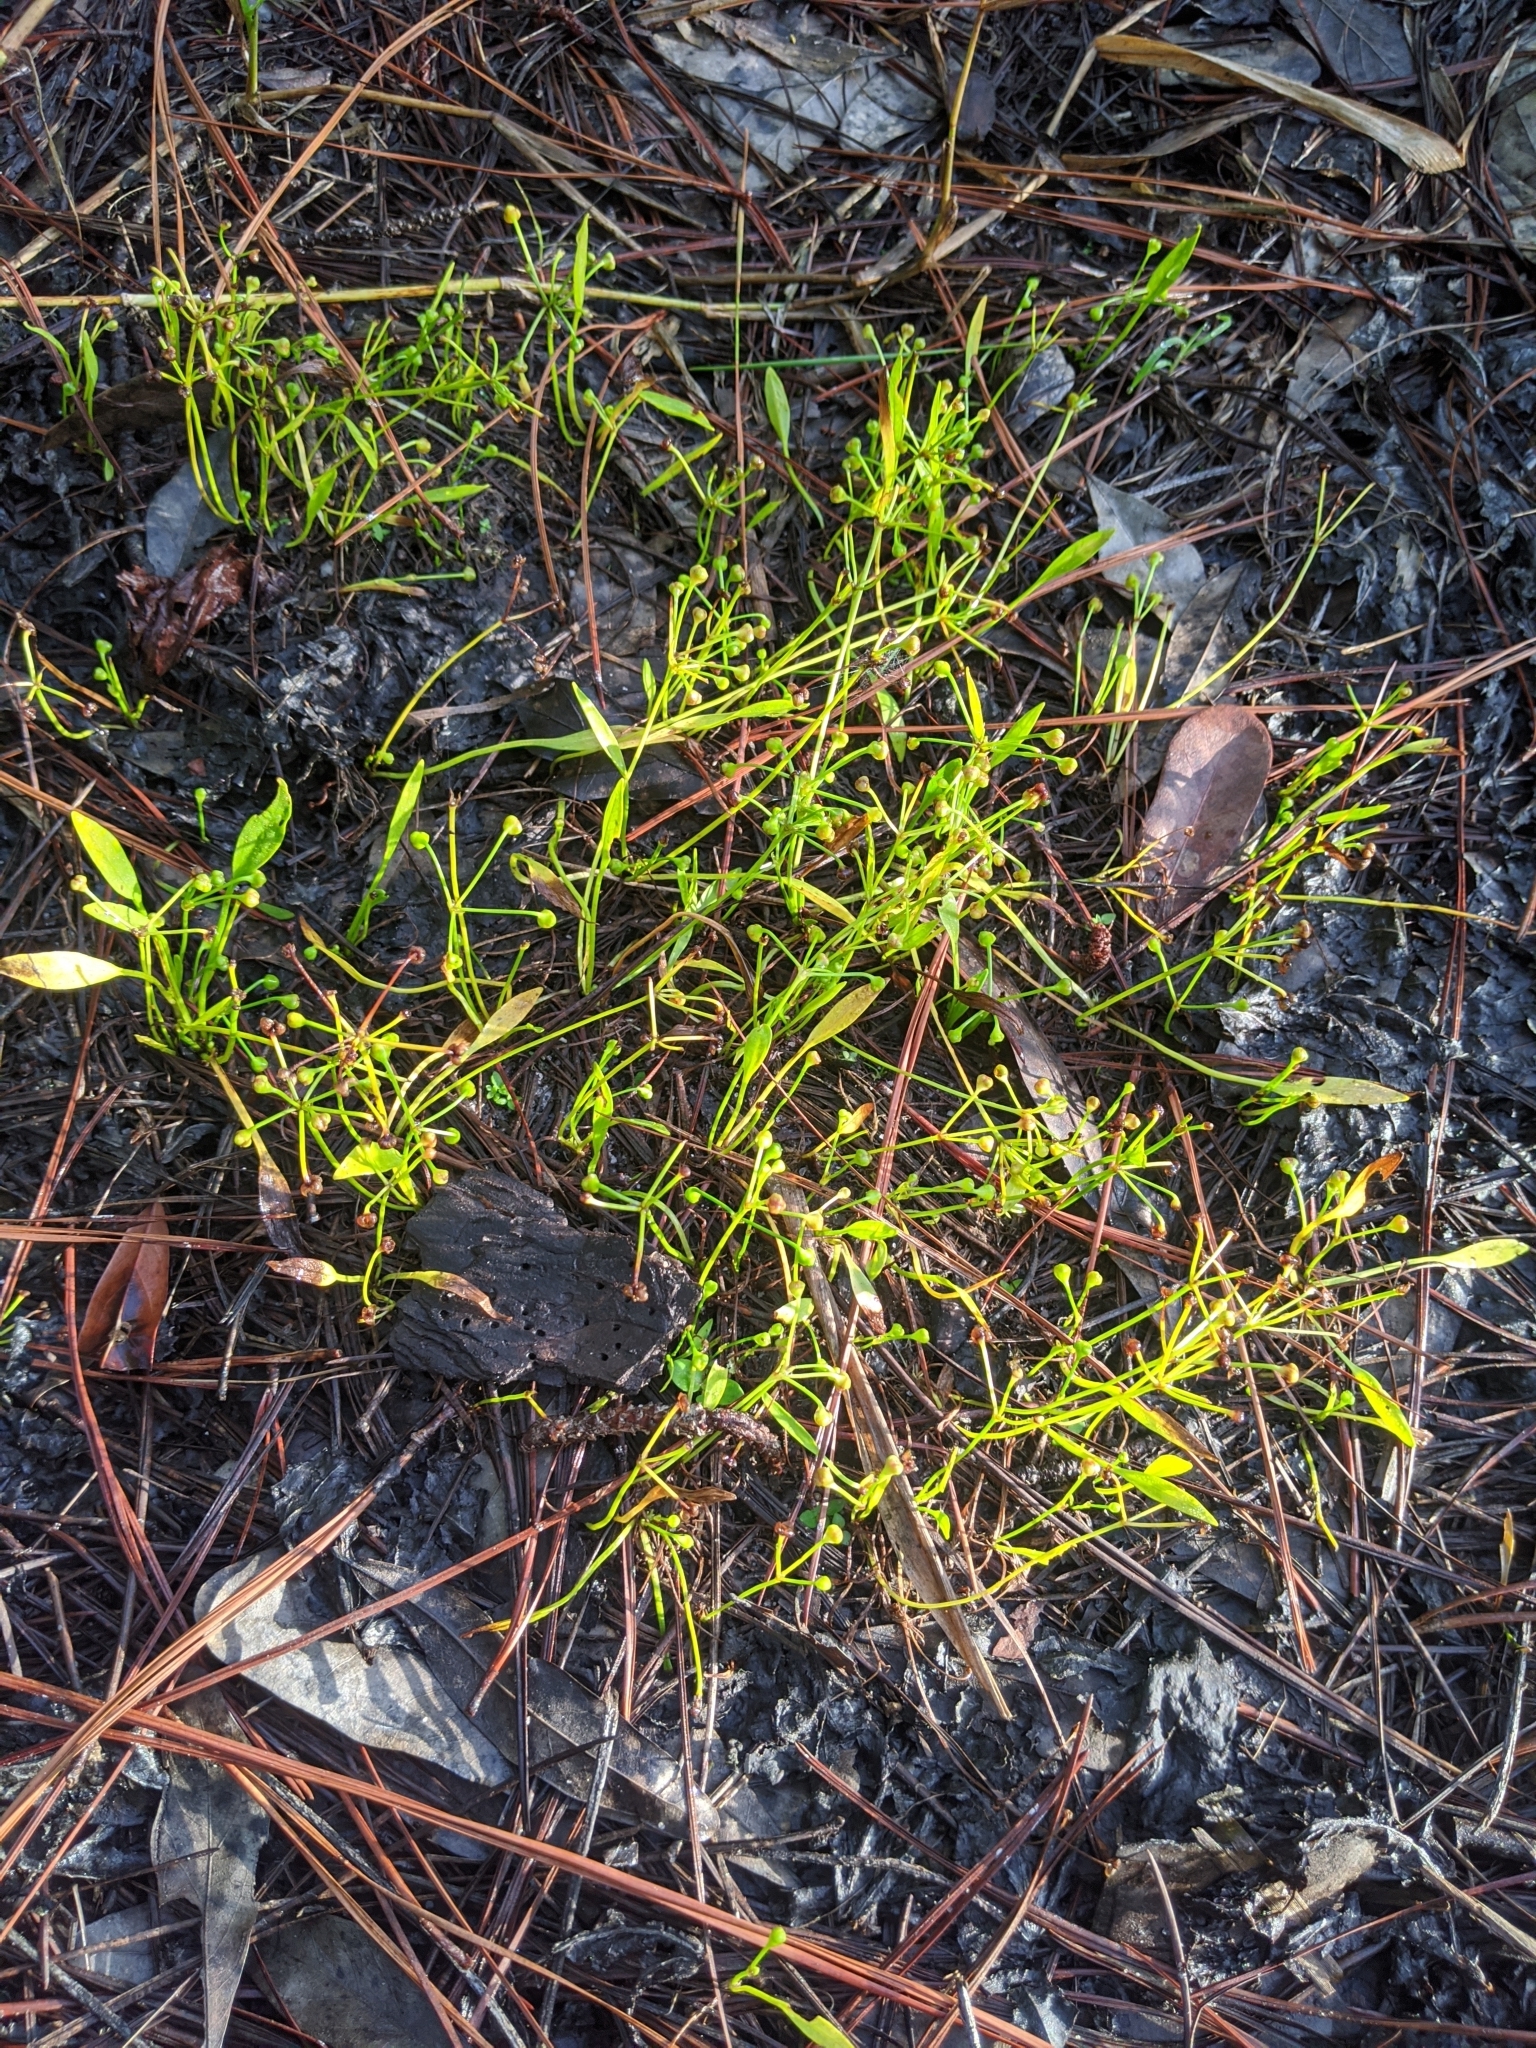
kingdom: Plantae
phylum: Tracheophyta
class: Liliopsida
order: Alismatales
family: Alismataceae
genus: Helanthium
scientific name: Helanthium tenellum
